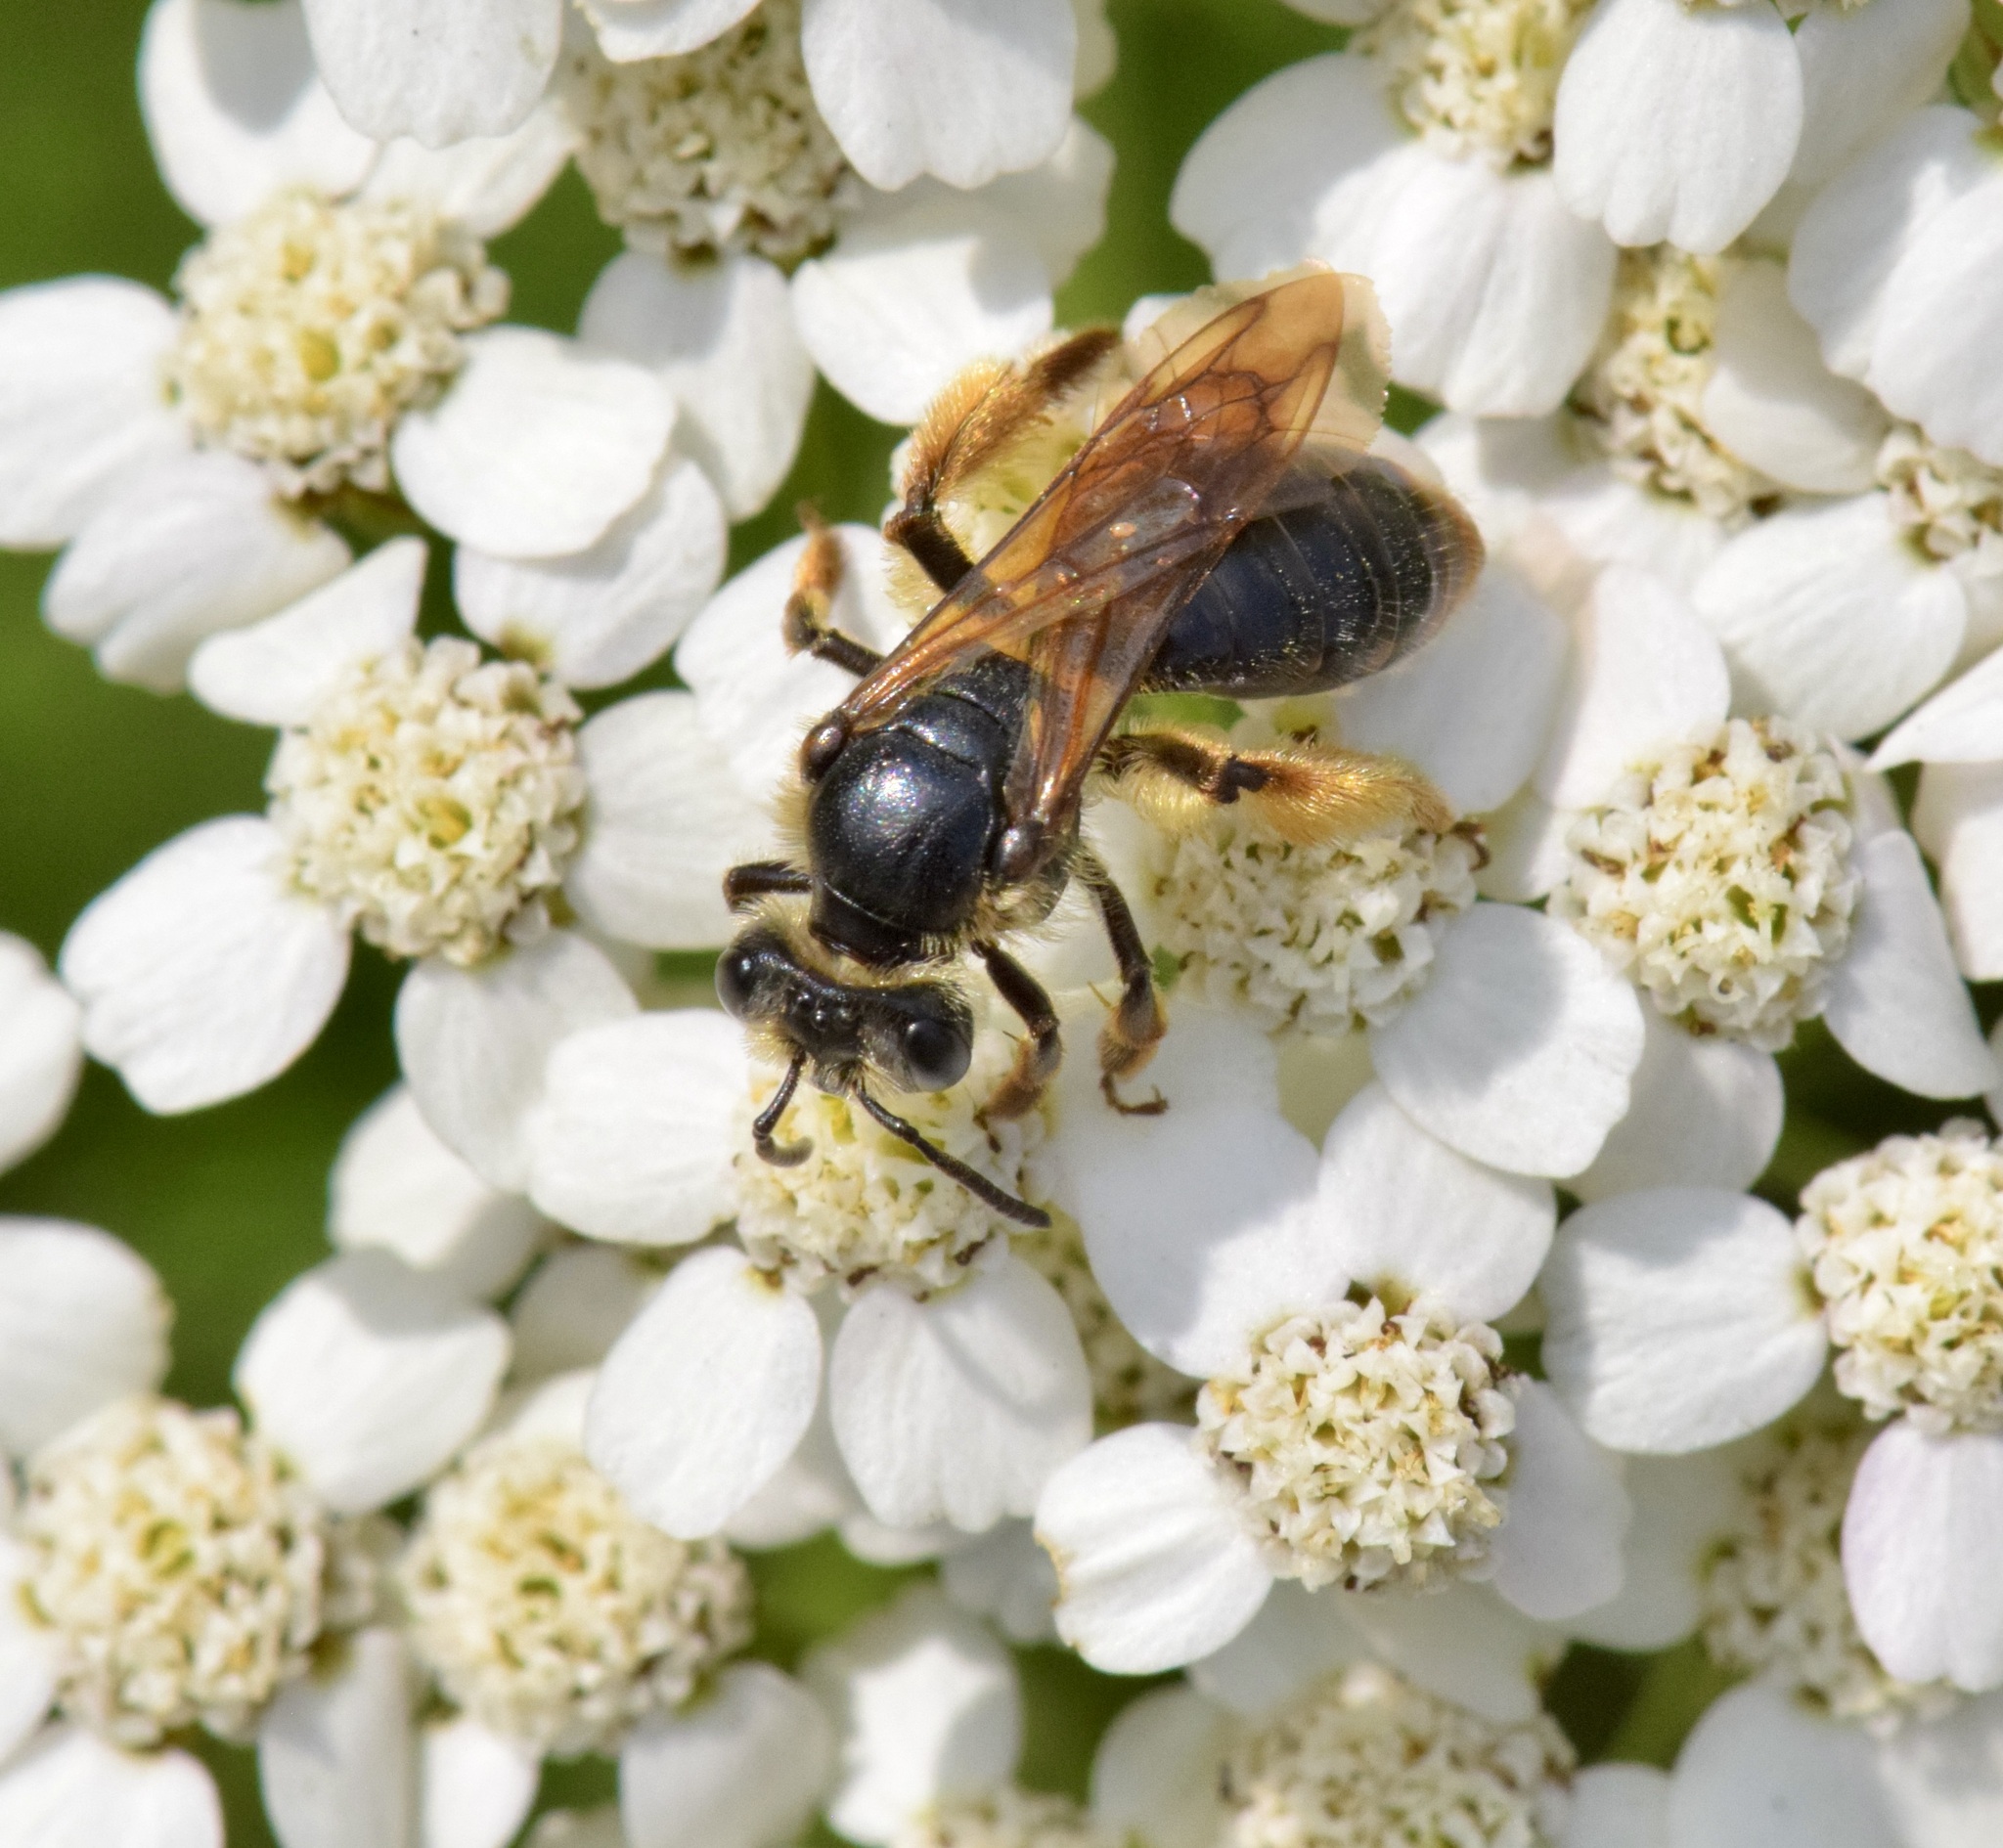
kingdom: Animalia
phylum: Arthropoda
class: Insecta
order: Hymenoptera
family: Andrenidae
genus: Andrena
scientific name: Andrena crataegi
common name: Hawthorn mining bee
